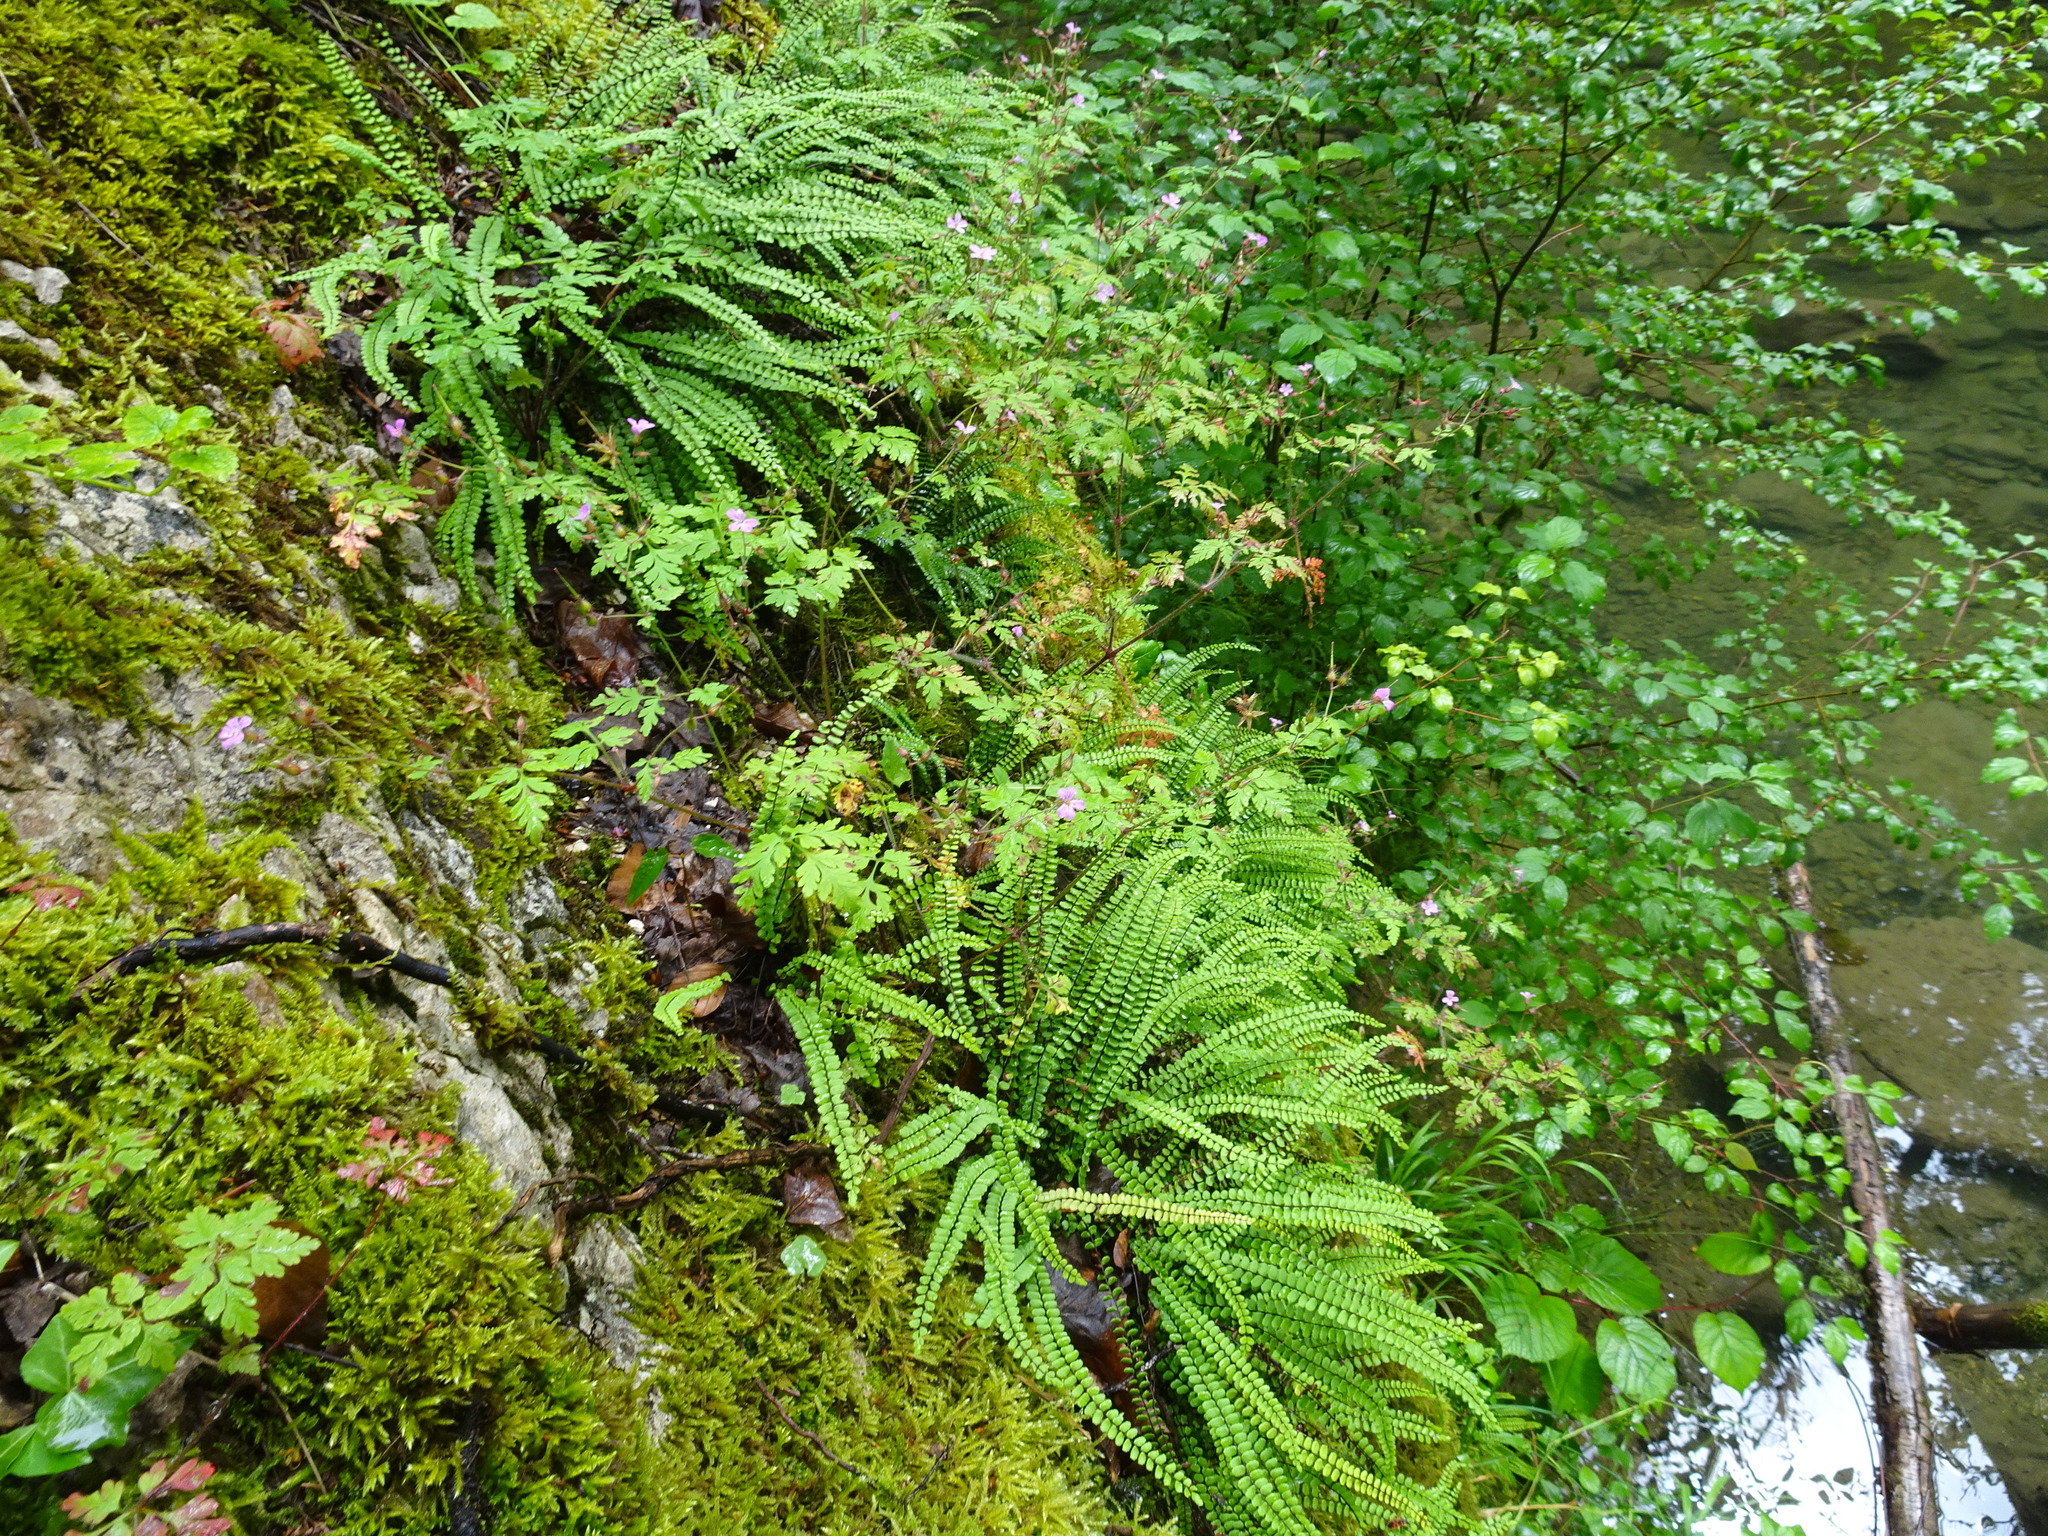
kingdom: Plantae
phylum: Tracheophyta
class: Polypodiopsida
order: Polypodiales
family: Aspleniaceae
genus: Asplenium
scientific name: Asplenium trichomanes
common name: Maidenhair spleenwort
